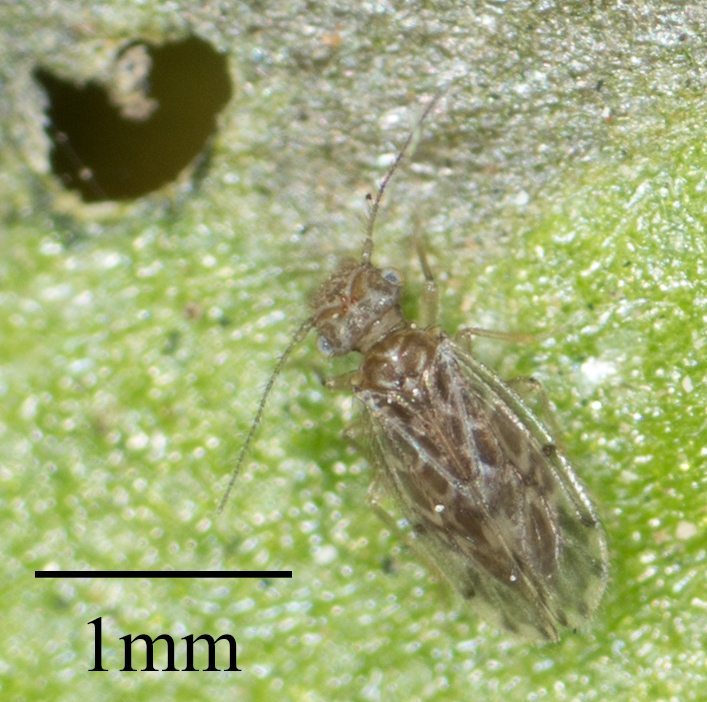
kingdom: Animalia
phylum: Arthropoda
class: Insecta
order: Psocodea
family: Ectopsocidae
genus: Ectopsocus
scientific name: Ectopsocus strauchi
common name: Medium-sized bark louse
